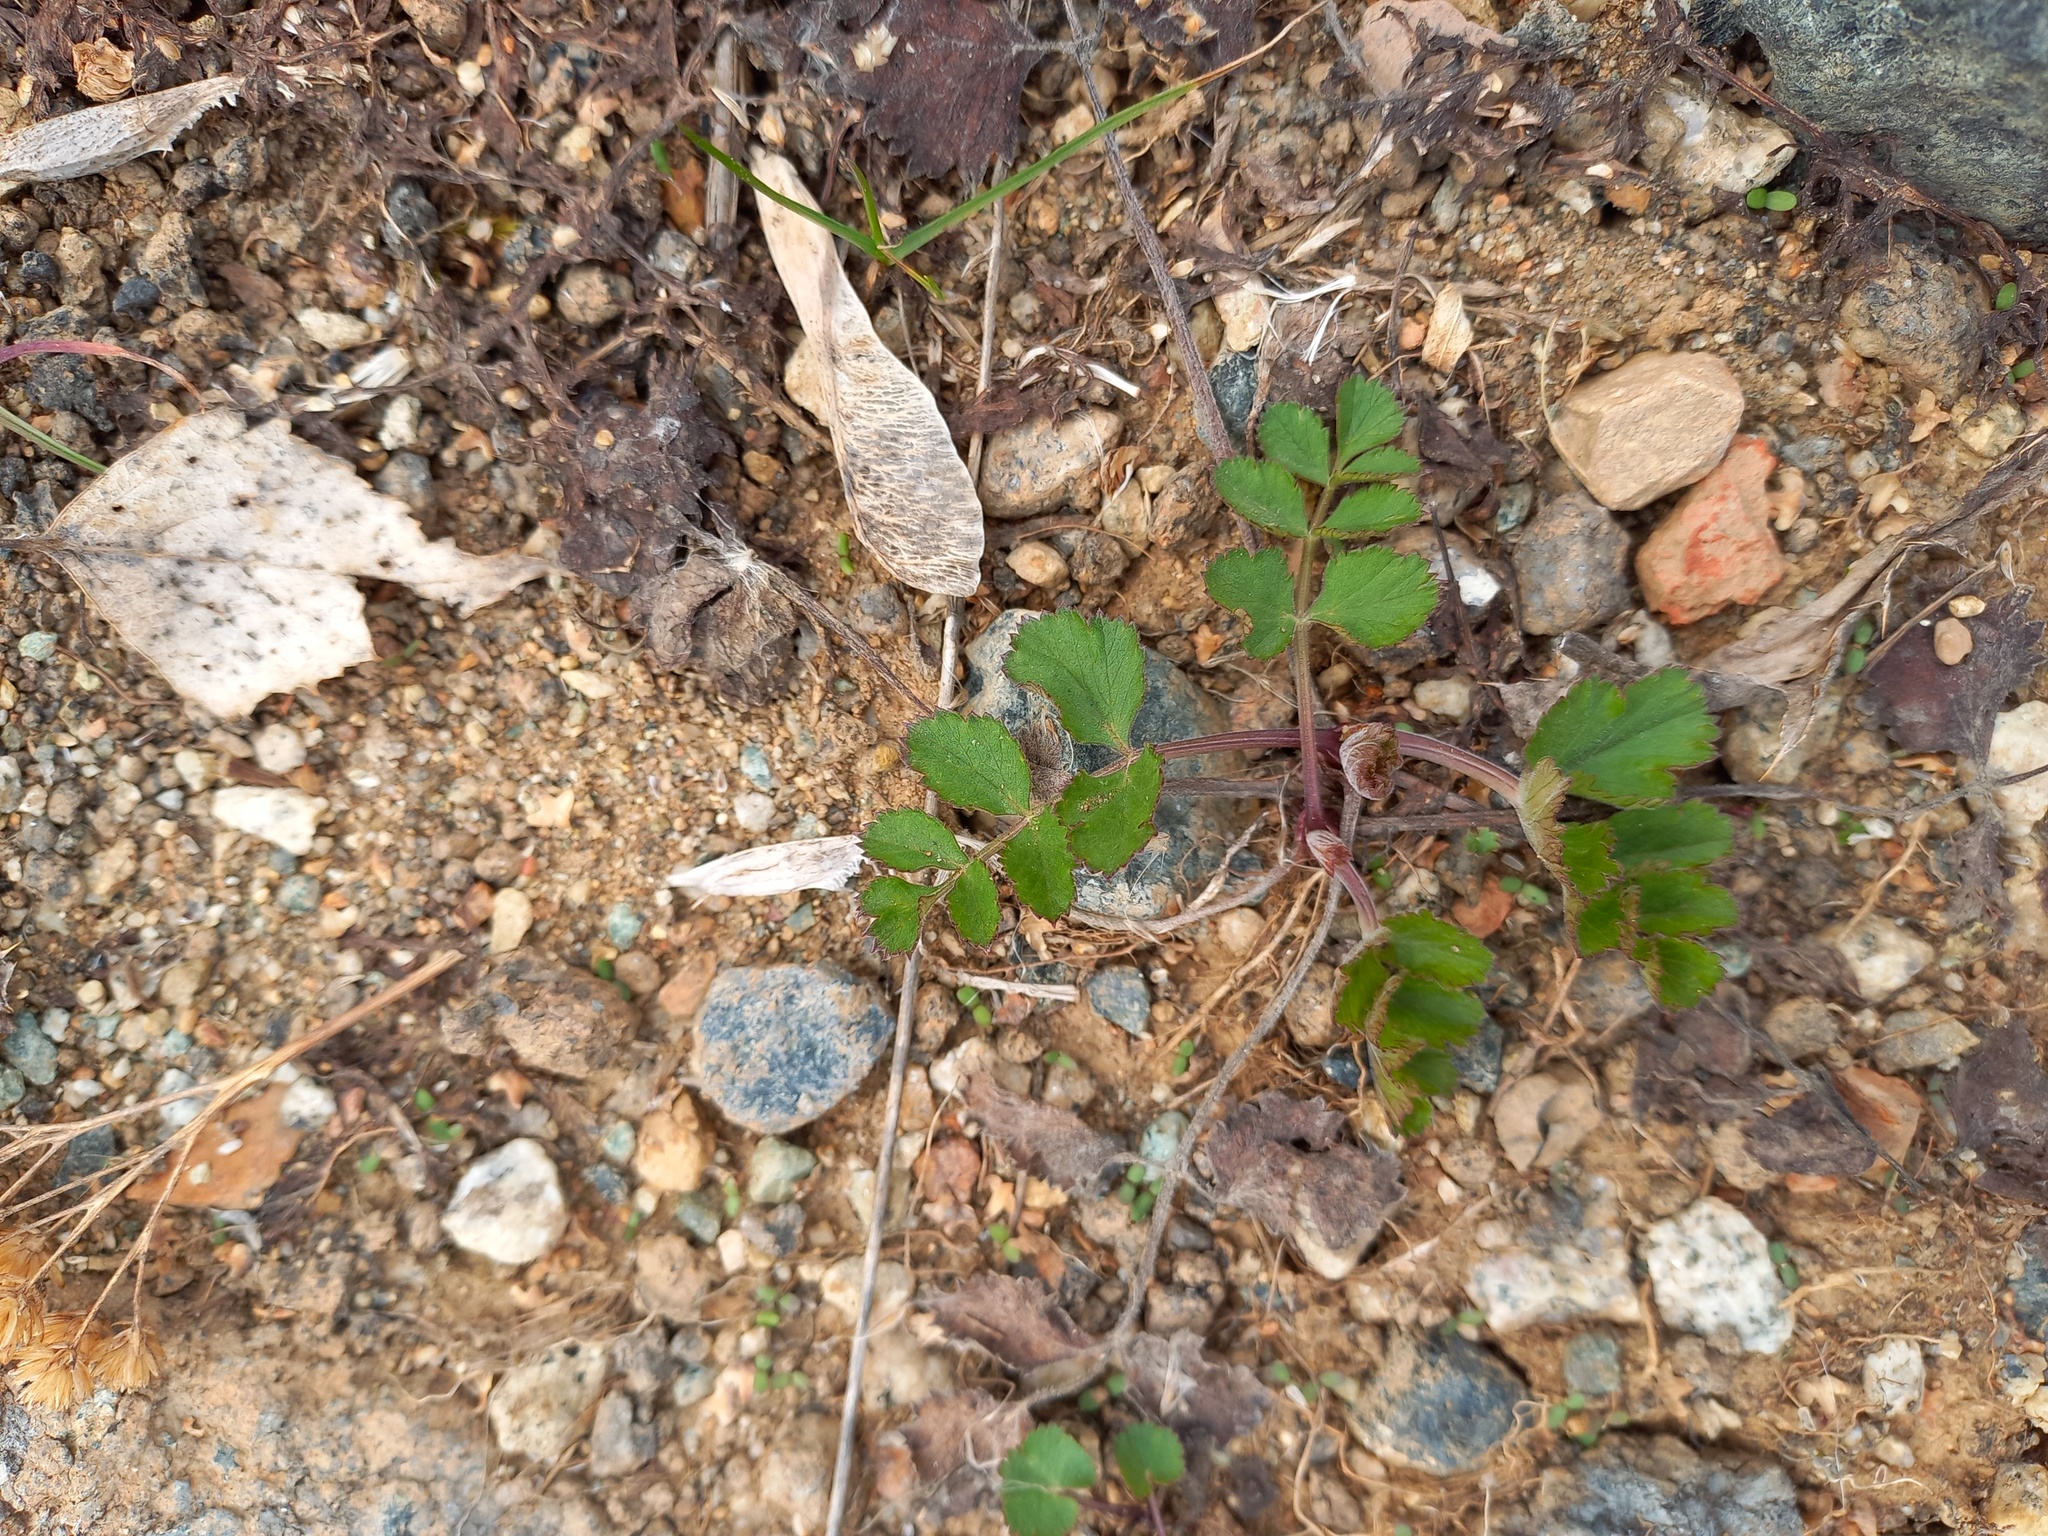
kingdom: Plantae
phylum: Tracheophyta
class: Magnoliopsida
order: Apiales
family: Apiaceae
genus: Pastinaca
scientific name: Pastinaca sativa
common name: Wild parsnip
